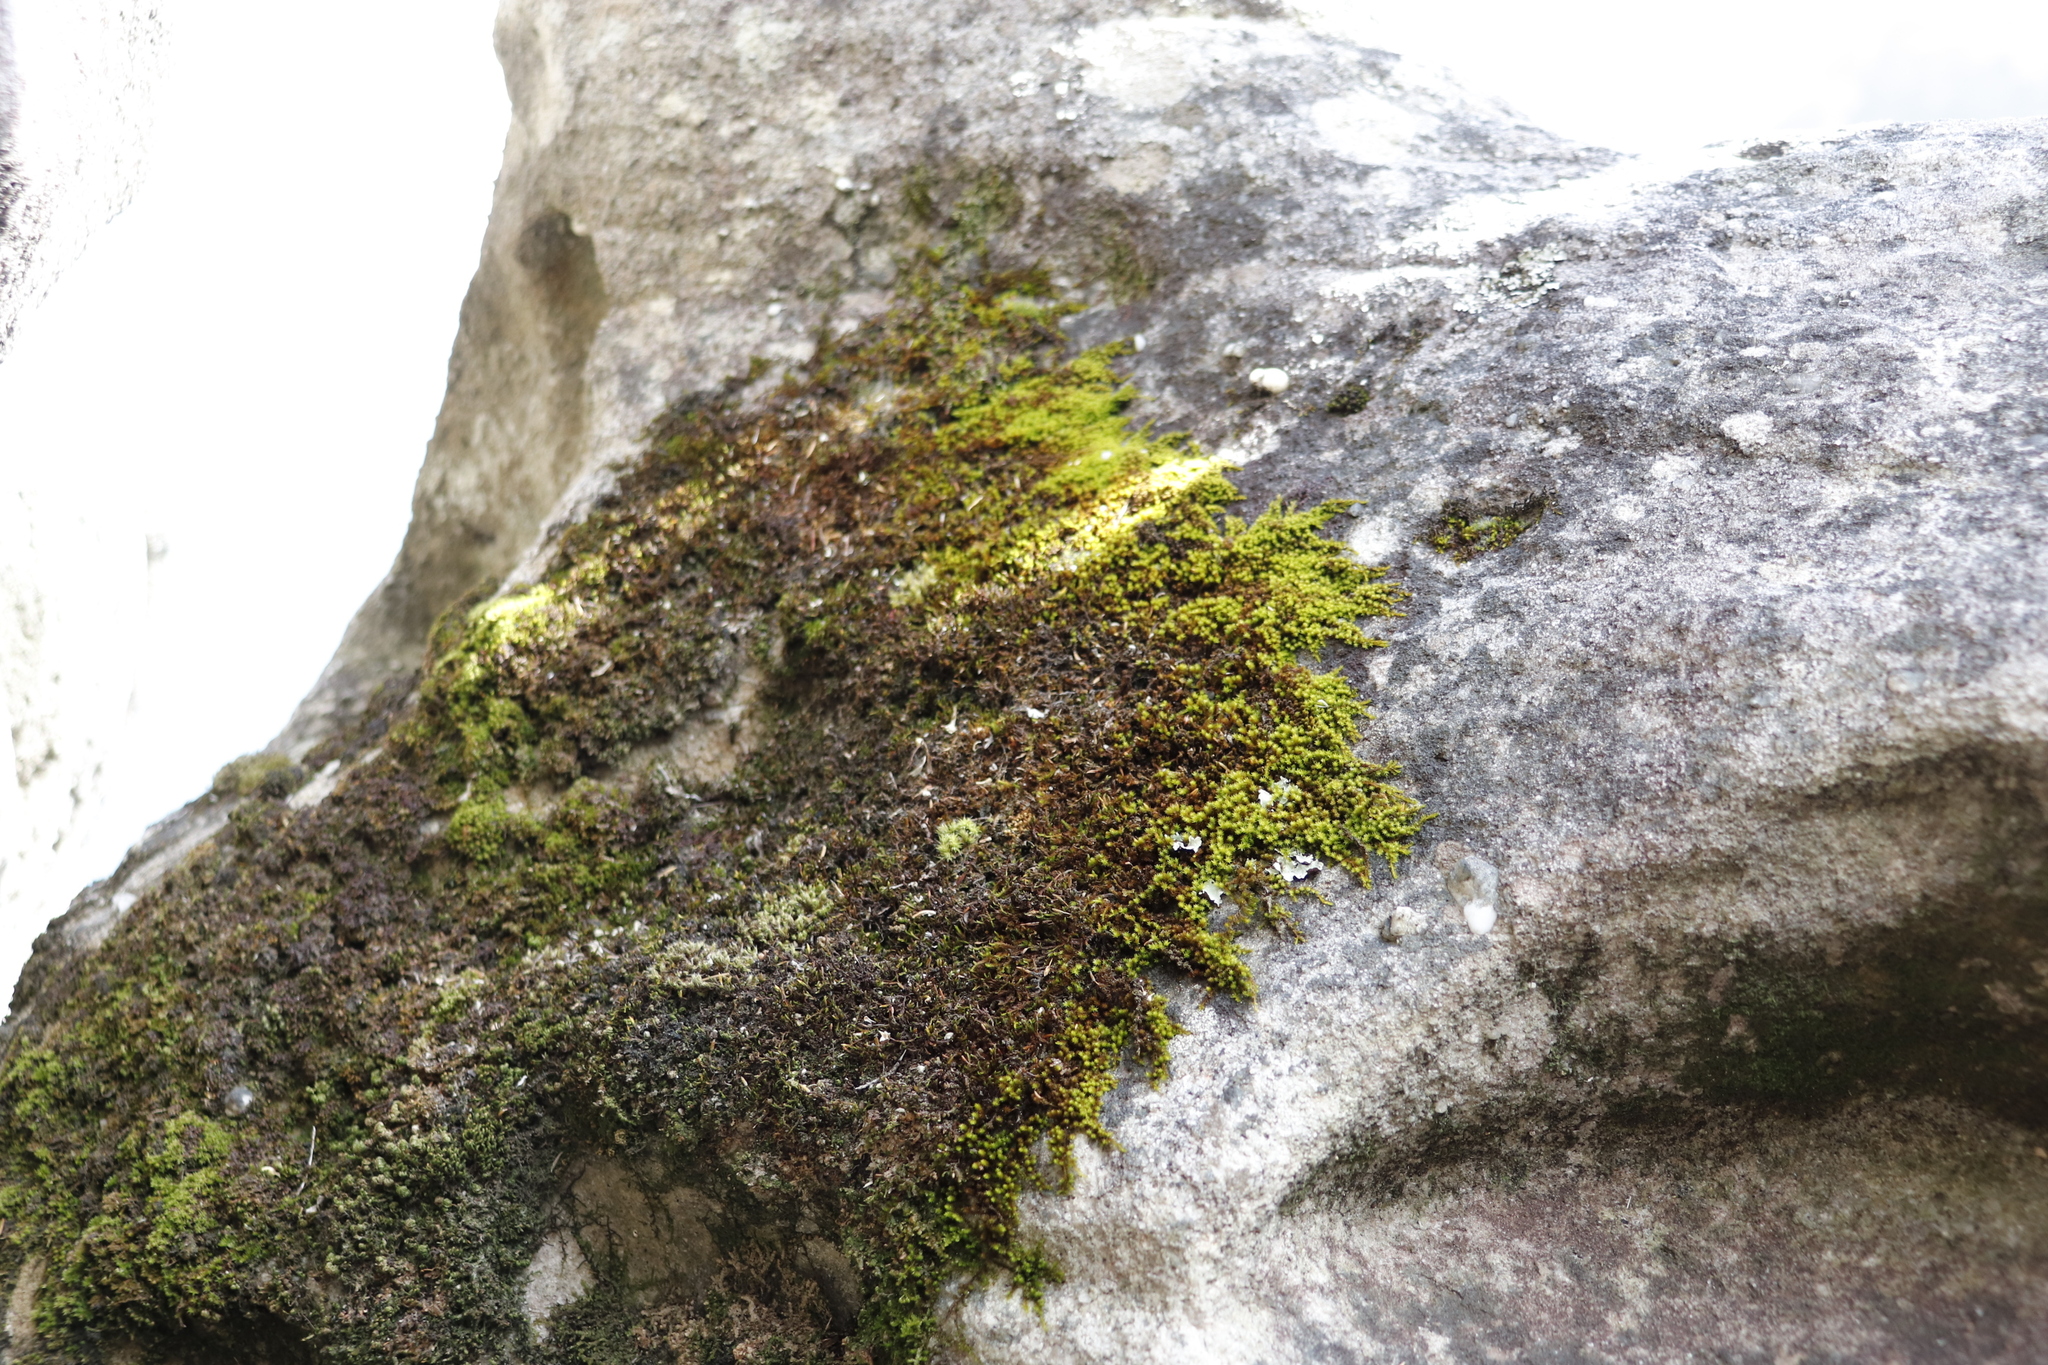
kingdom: Plantae
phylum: Bryophyta
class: Bryopsida
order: Orthotrichales
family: Orthotrichaceae
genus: Macrocoma
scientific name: Macrocoma tenuis
